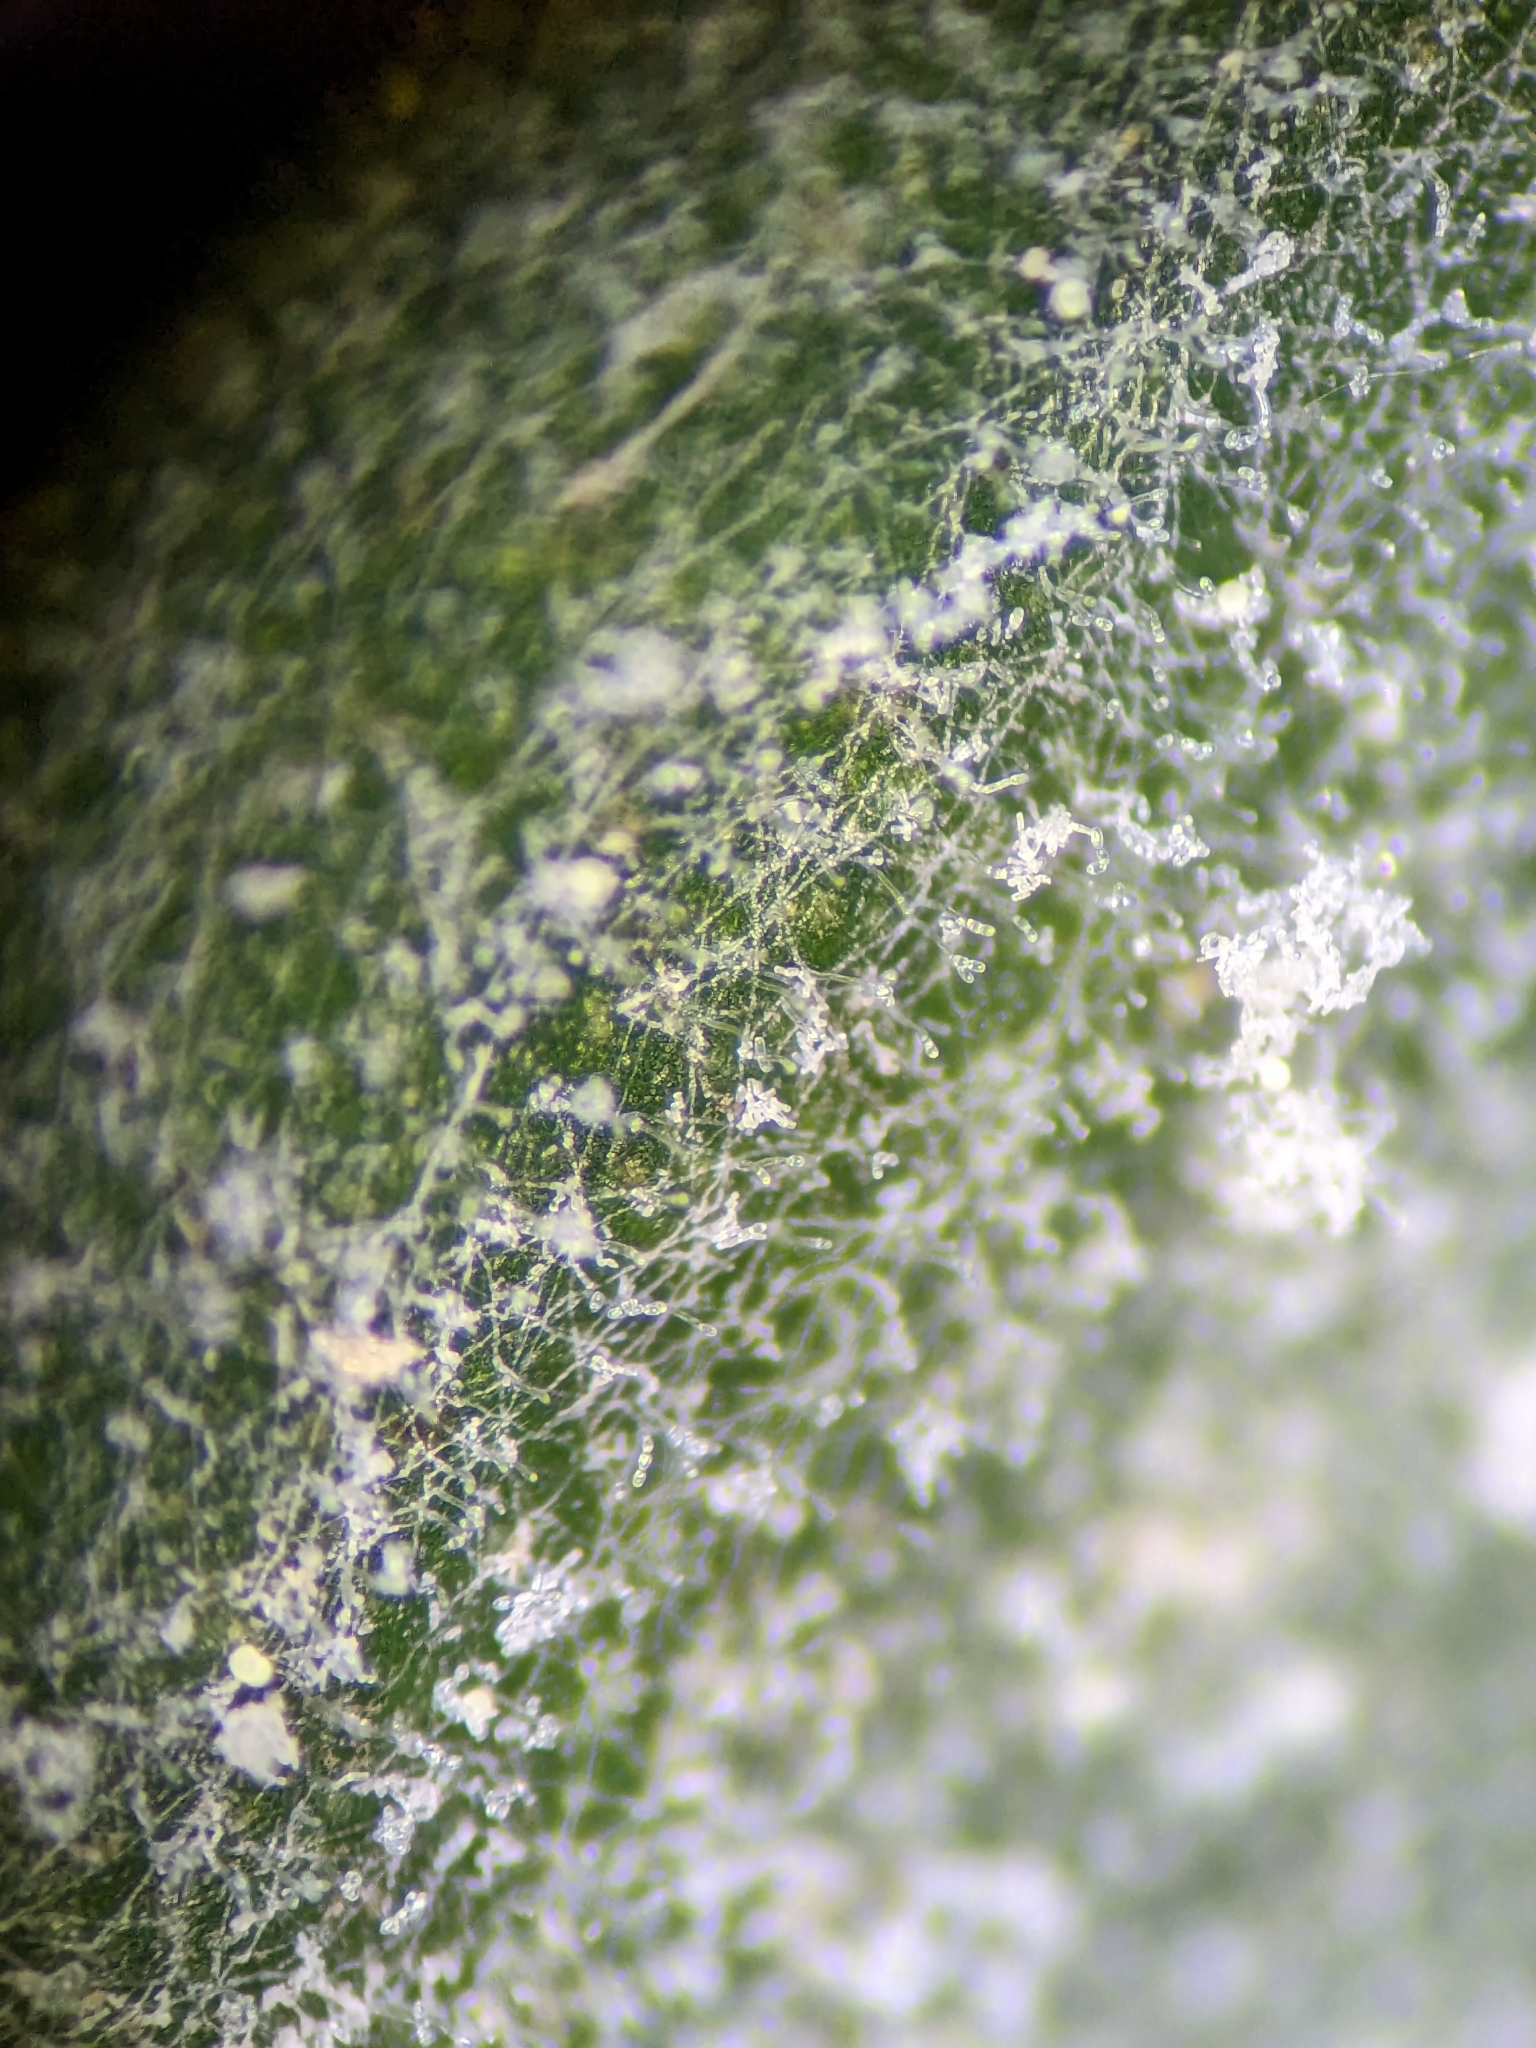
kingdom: Fungi
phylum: Ascomycota
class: Leotiomycetes
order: Helotiales
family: Erysiphaceae
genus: Golovinomyces
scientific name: Golovinomyces longipes
